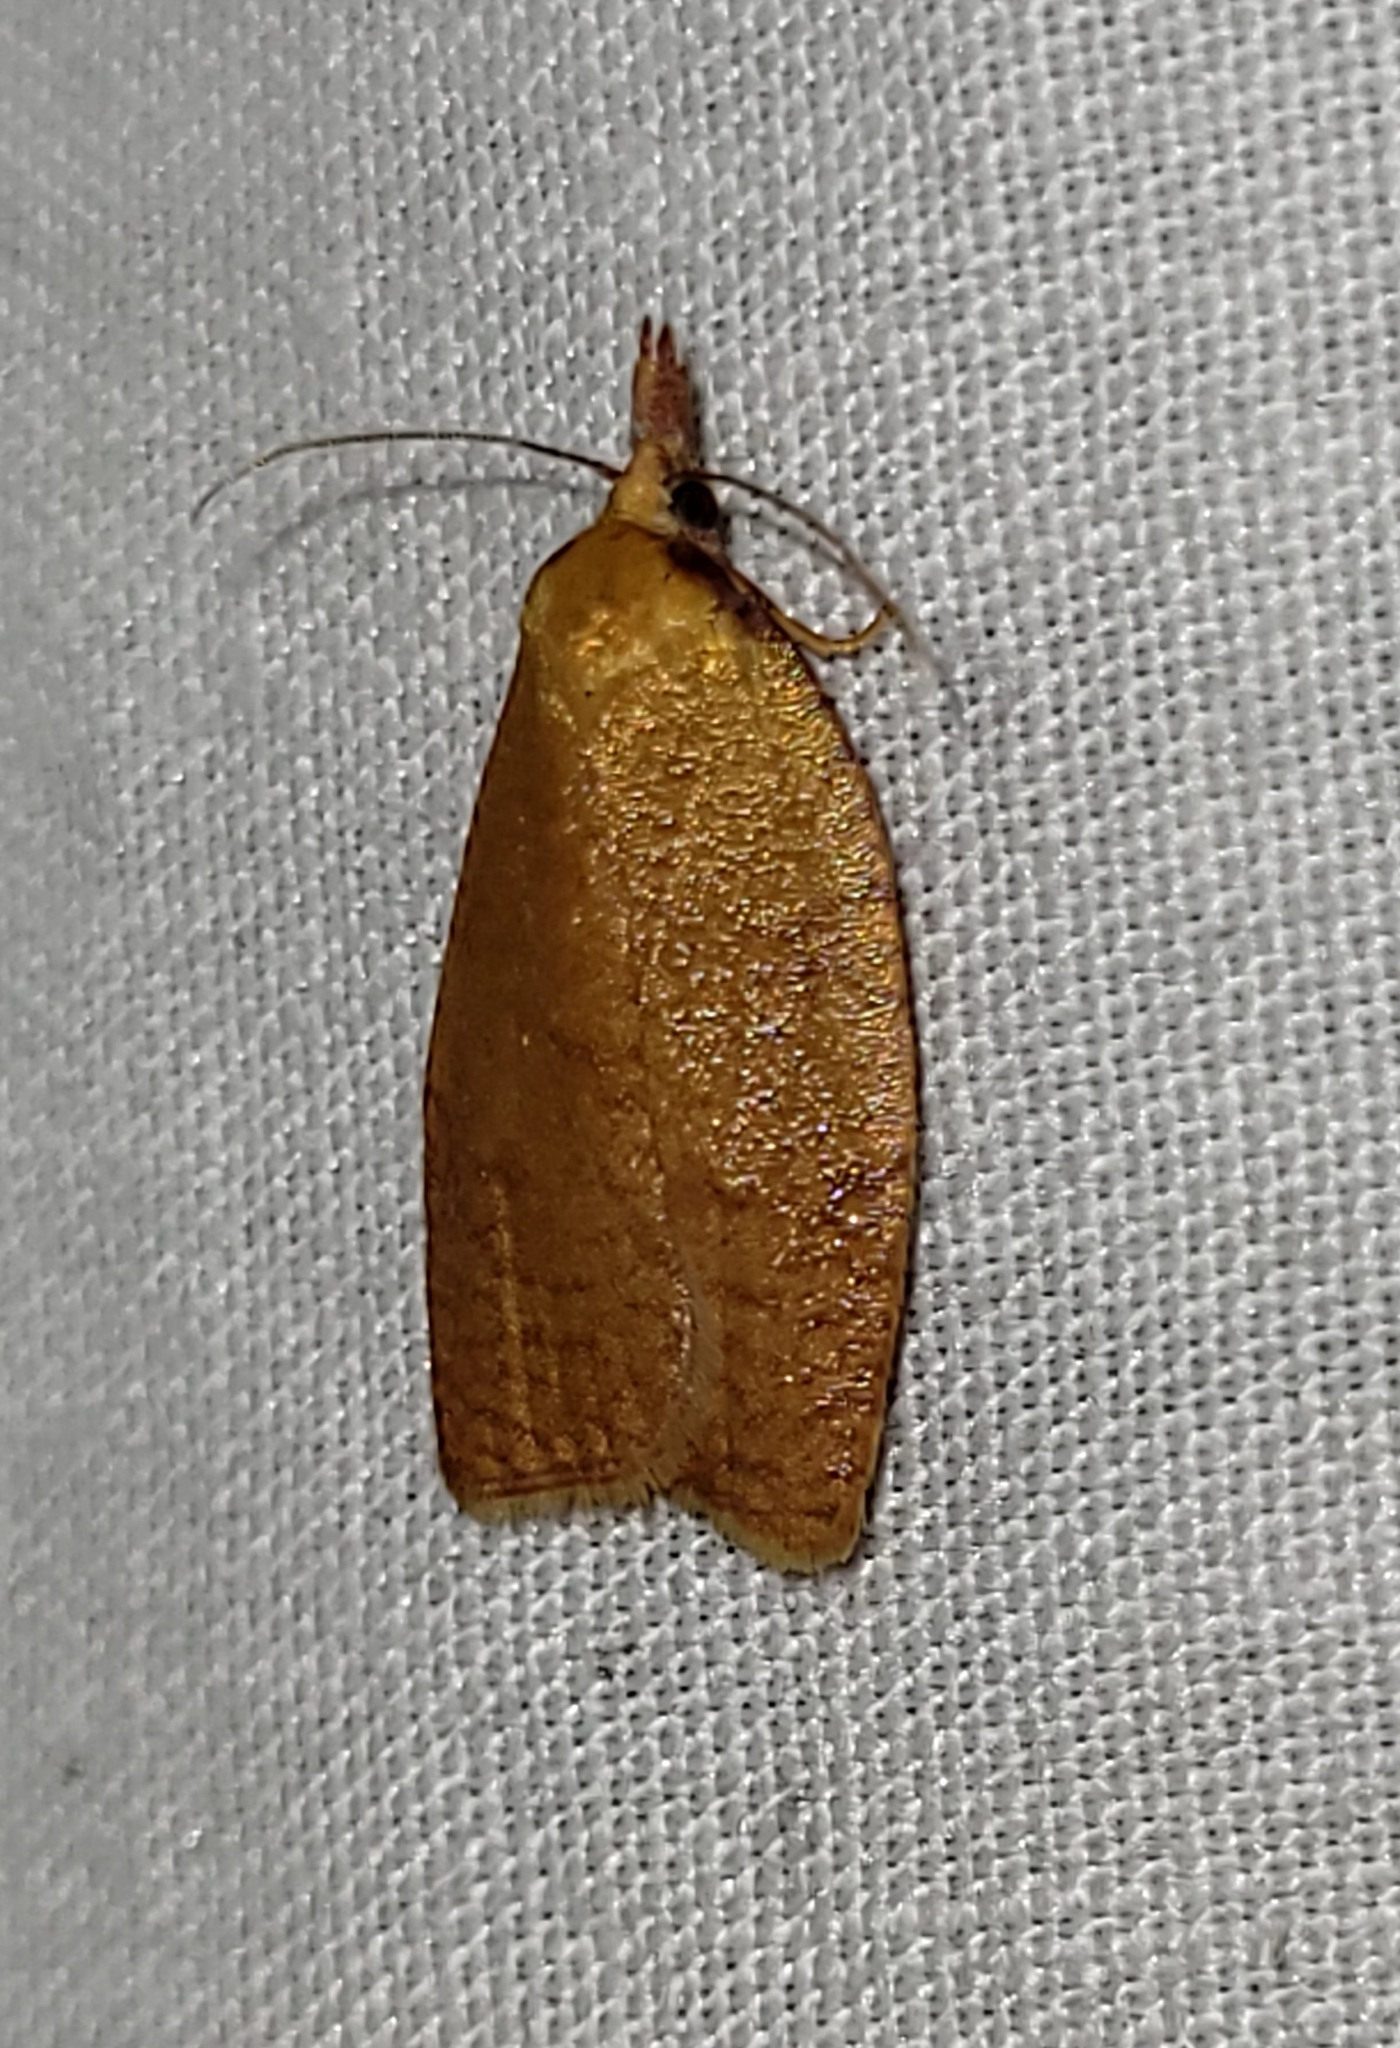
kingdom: Animalia
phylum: Arthropoda
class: Insecta
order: Lepidoptera
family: Tortricidae
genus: Cenopis
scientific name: Cenopis directana
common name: Chokecherry leafroller moth
